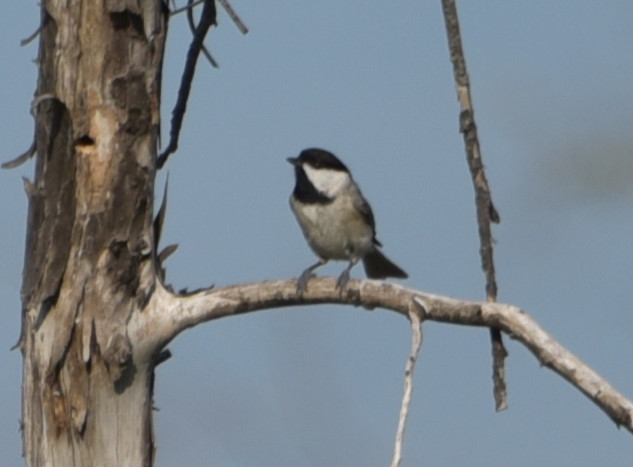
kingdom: Animalia
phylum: Chordata
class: Aves
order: Passeriformes
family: Paridae
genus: Poecile
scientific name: Poecile carolinensis
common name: Carolina chickadee
